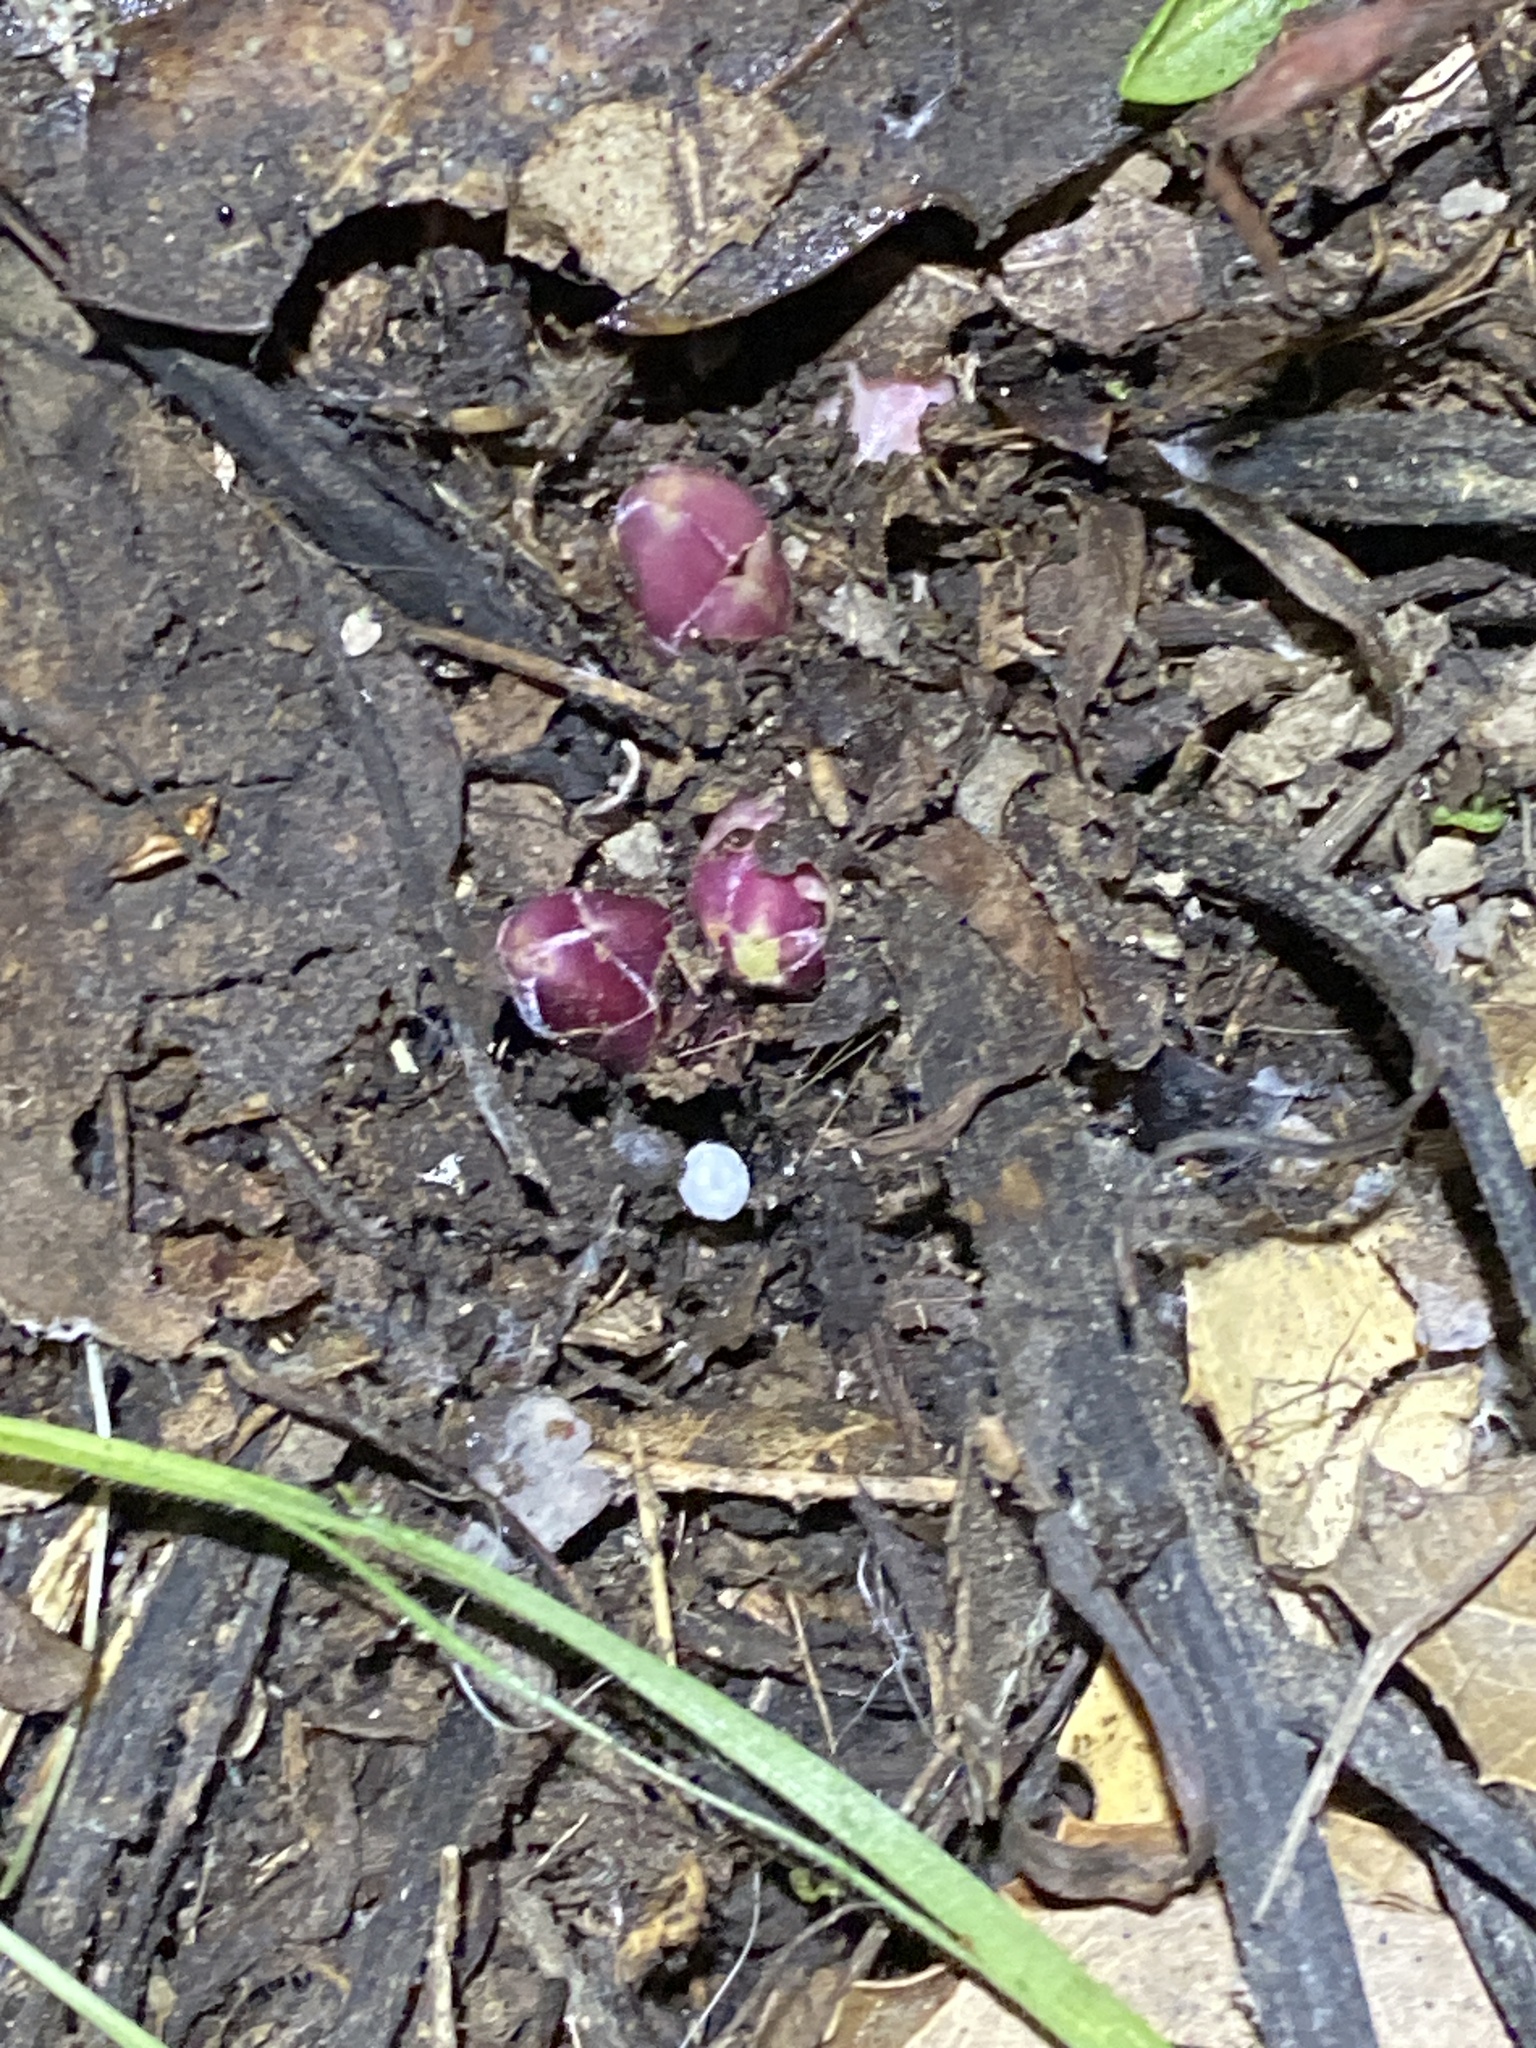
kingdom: Plantae
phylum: Tracheophyta
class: Magnoliopsida
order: Lamiales
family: Orobanchaceae
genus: Pedicularis
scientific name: Pedicularis densiflora
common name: Indian warrior
